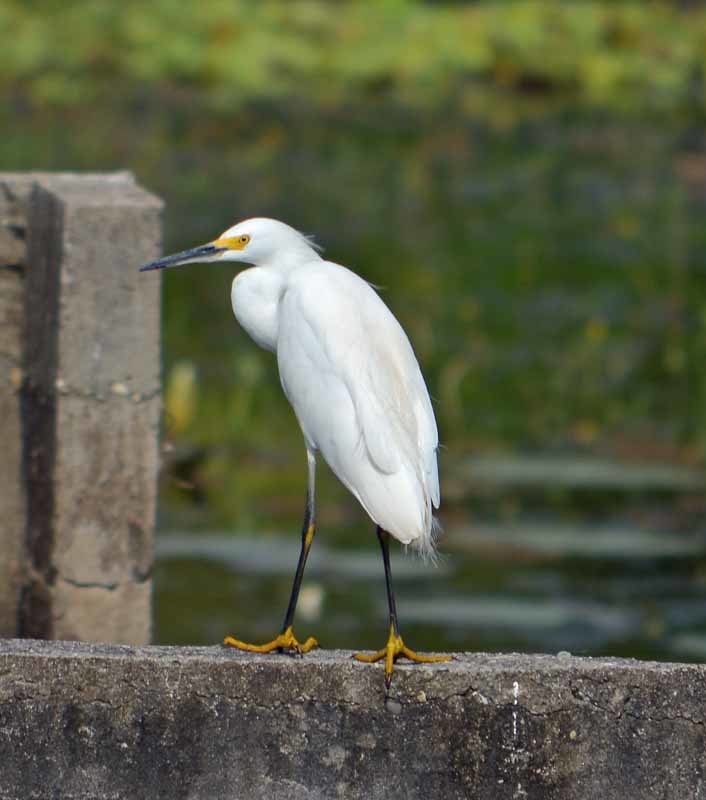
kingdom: Animalia
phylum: Chordata
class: Aves
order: Pelecaniformes
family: Ardeidae
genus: Egretta
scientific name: Egretta thula
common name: Snowy egret
